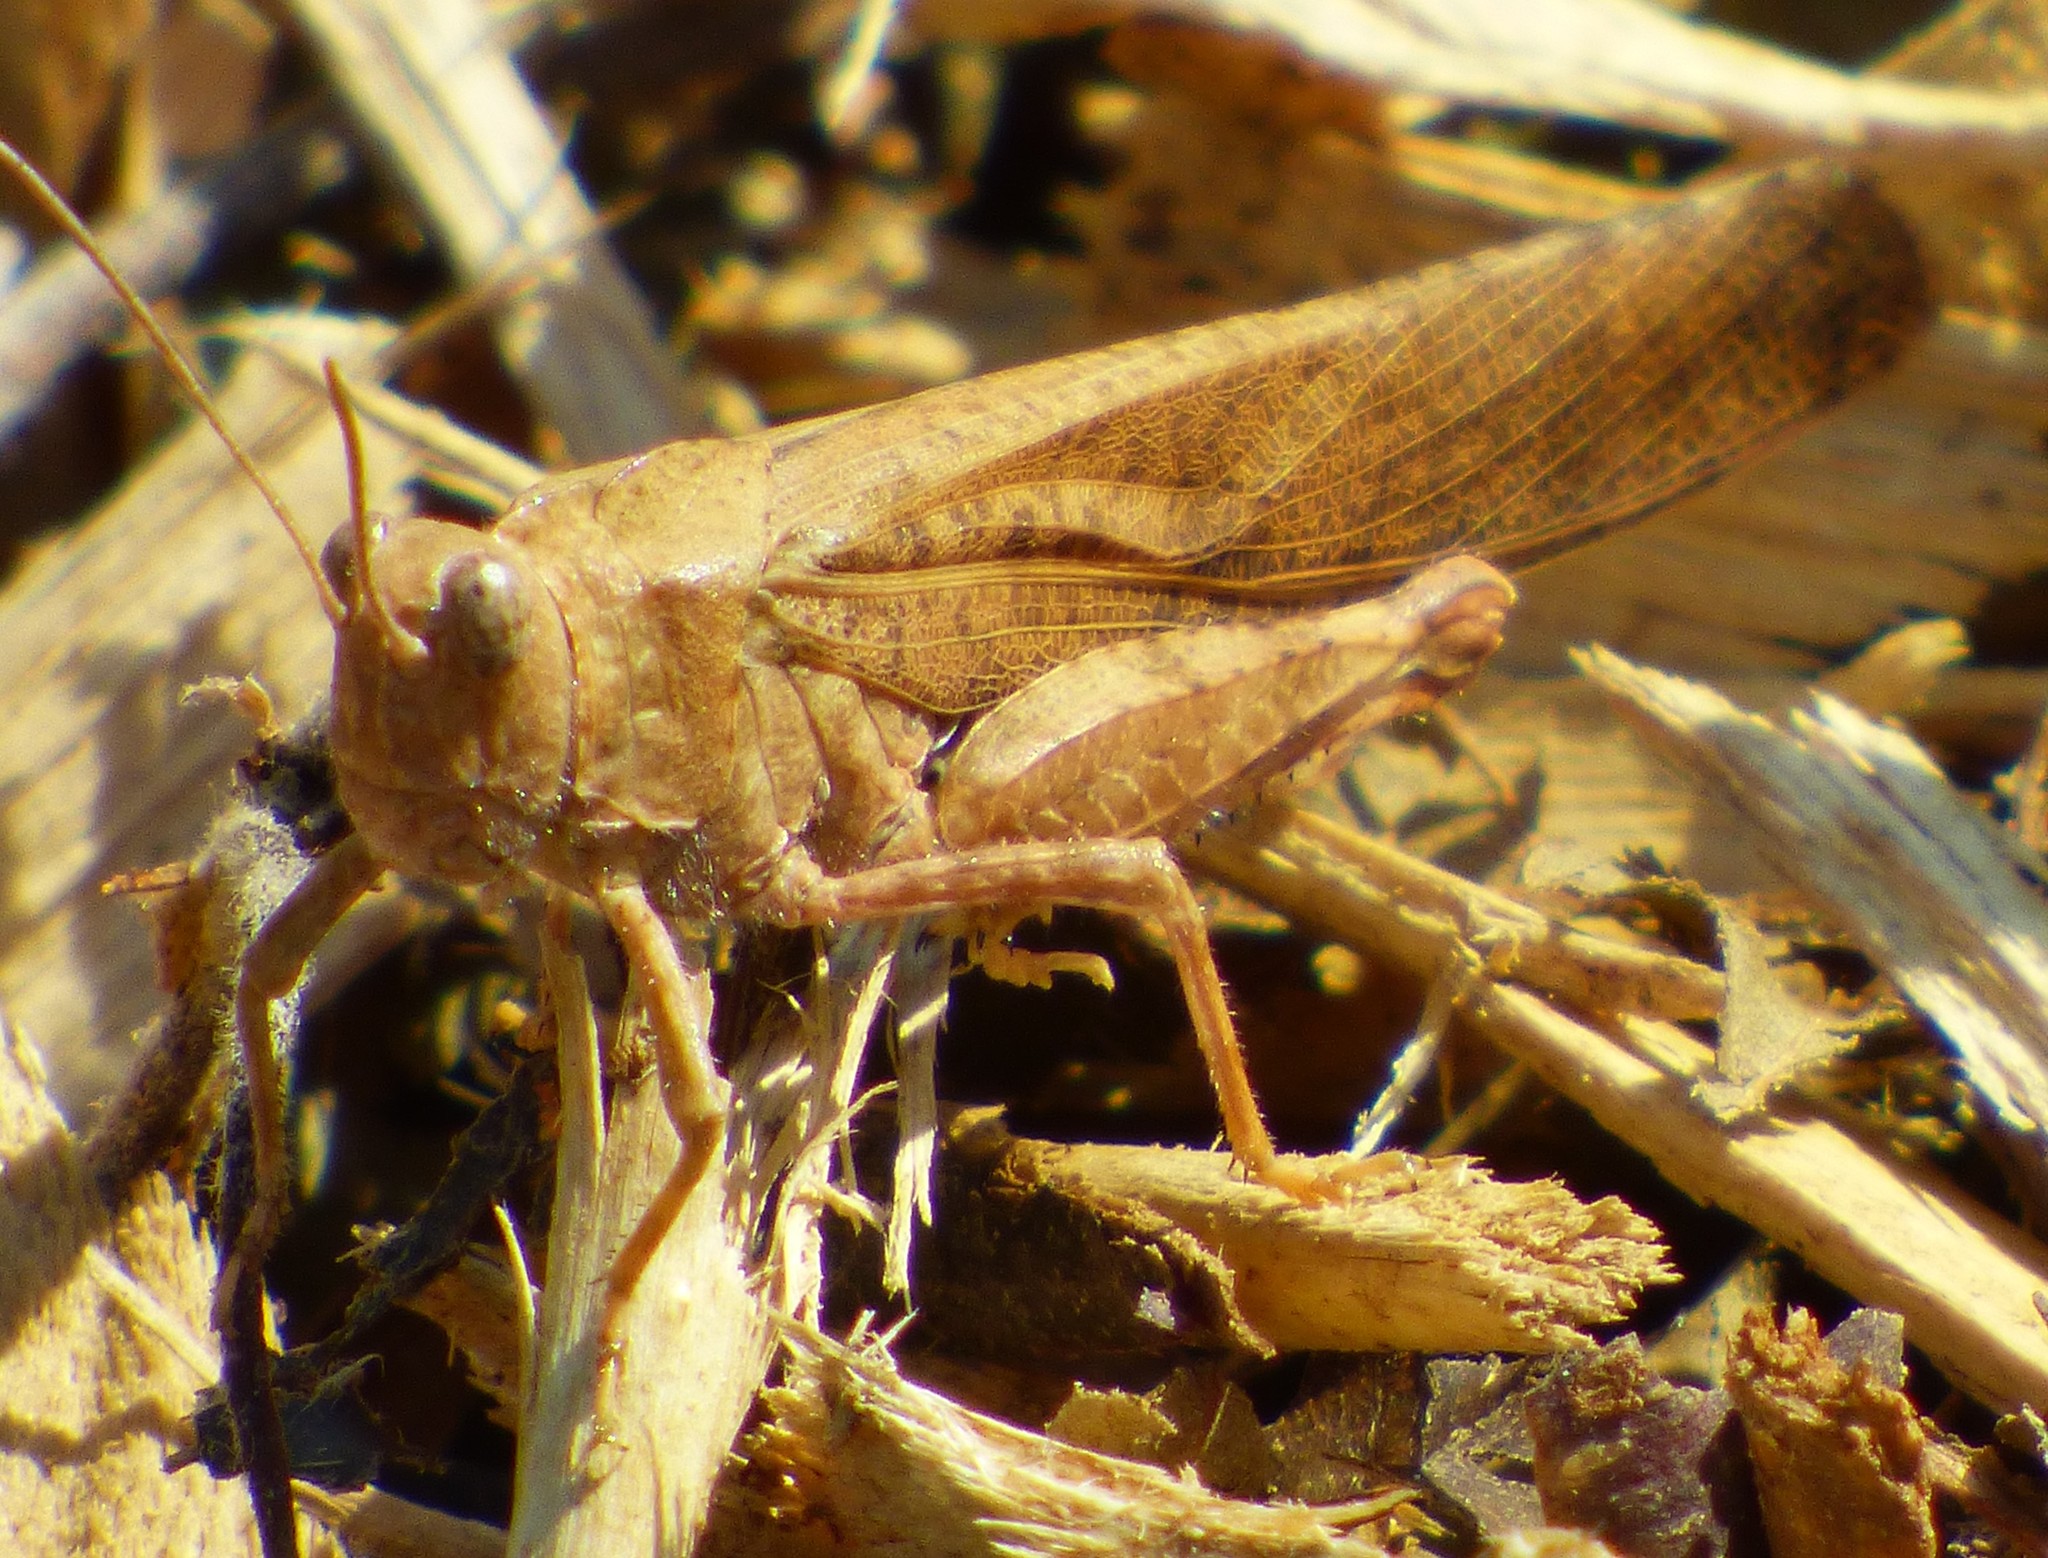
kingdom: Animalia
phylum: Arthropoda
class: Insecta
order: Orthoptera
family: Acrididae
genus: Dissosteira
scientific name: Dissosteira carolina
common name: Carolina grasshopper
